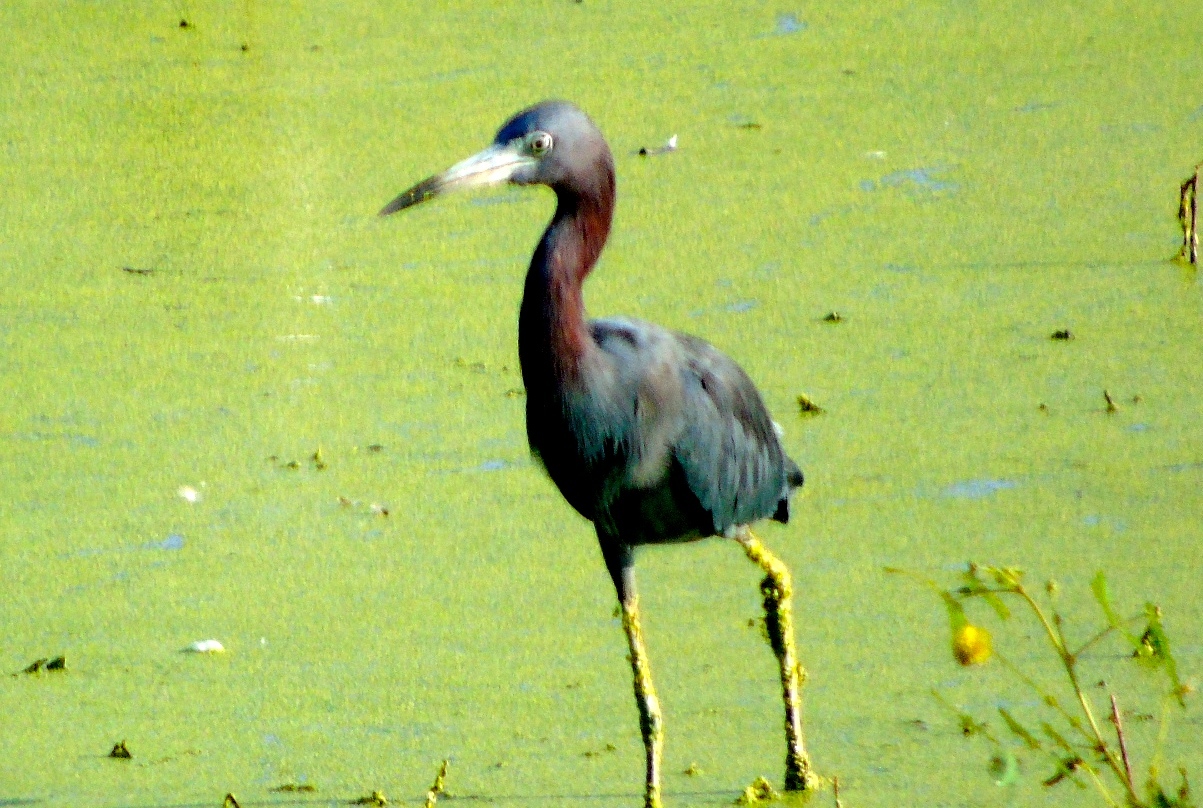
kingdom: Animalia
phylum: Chordata
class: Aves
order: Pelecaniformes
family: Ardeidae
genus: Egretta
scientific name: Egretta caerulea
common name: Little blue heron
